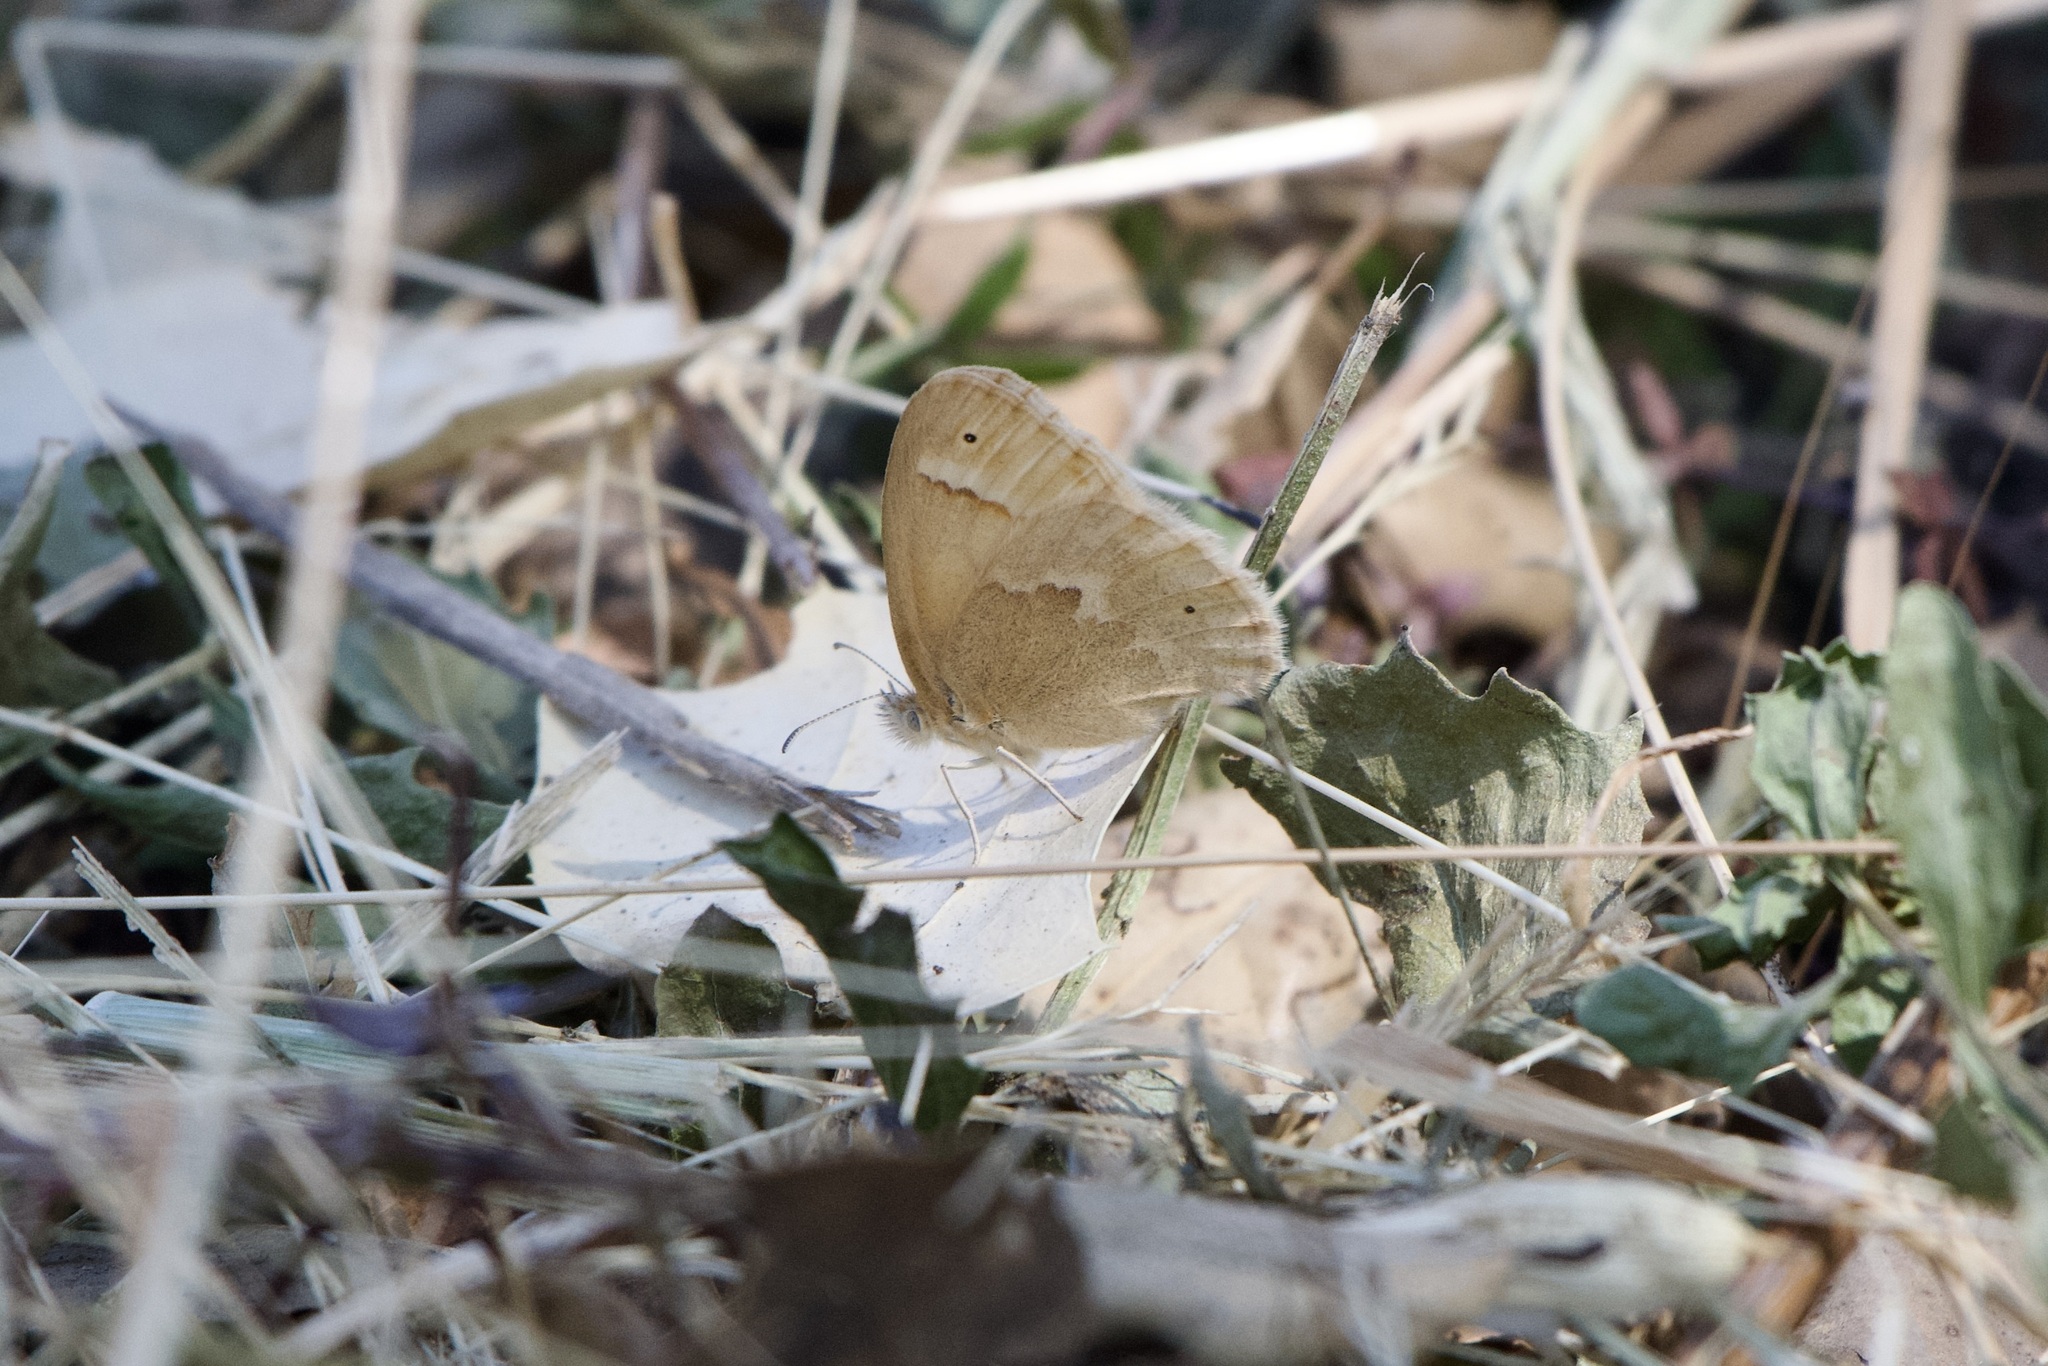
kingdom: Animalia
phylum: Arthropoda
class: Insecta
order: Lepidoptera
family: Nymphalidae
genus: Coenonympha
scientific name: Coenonympha california
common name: Common ringlet
